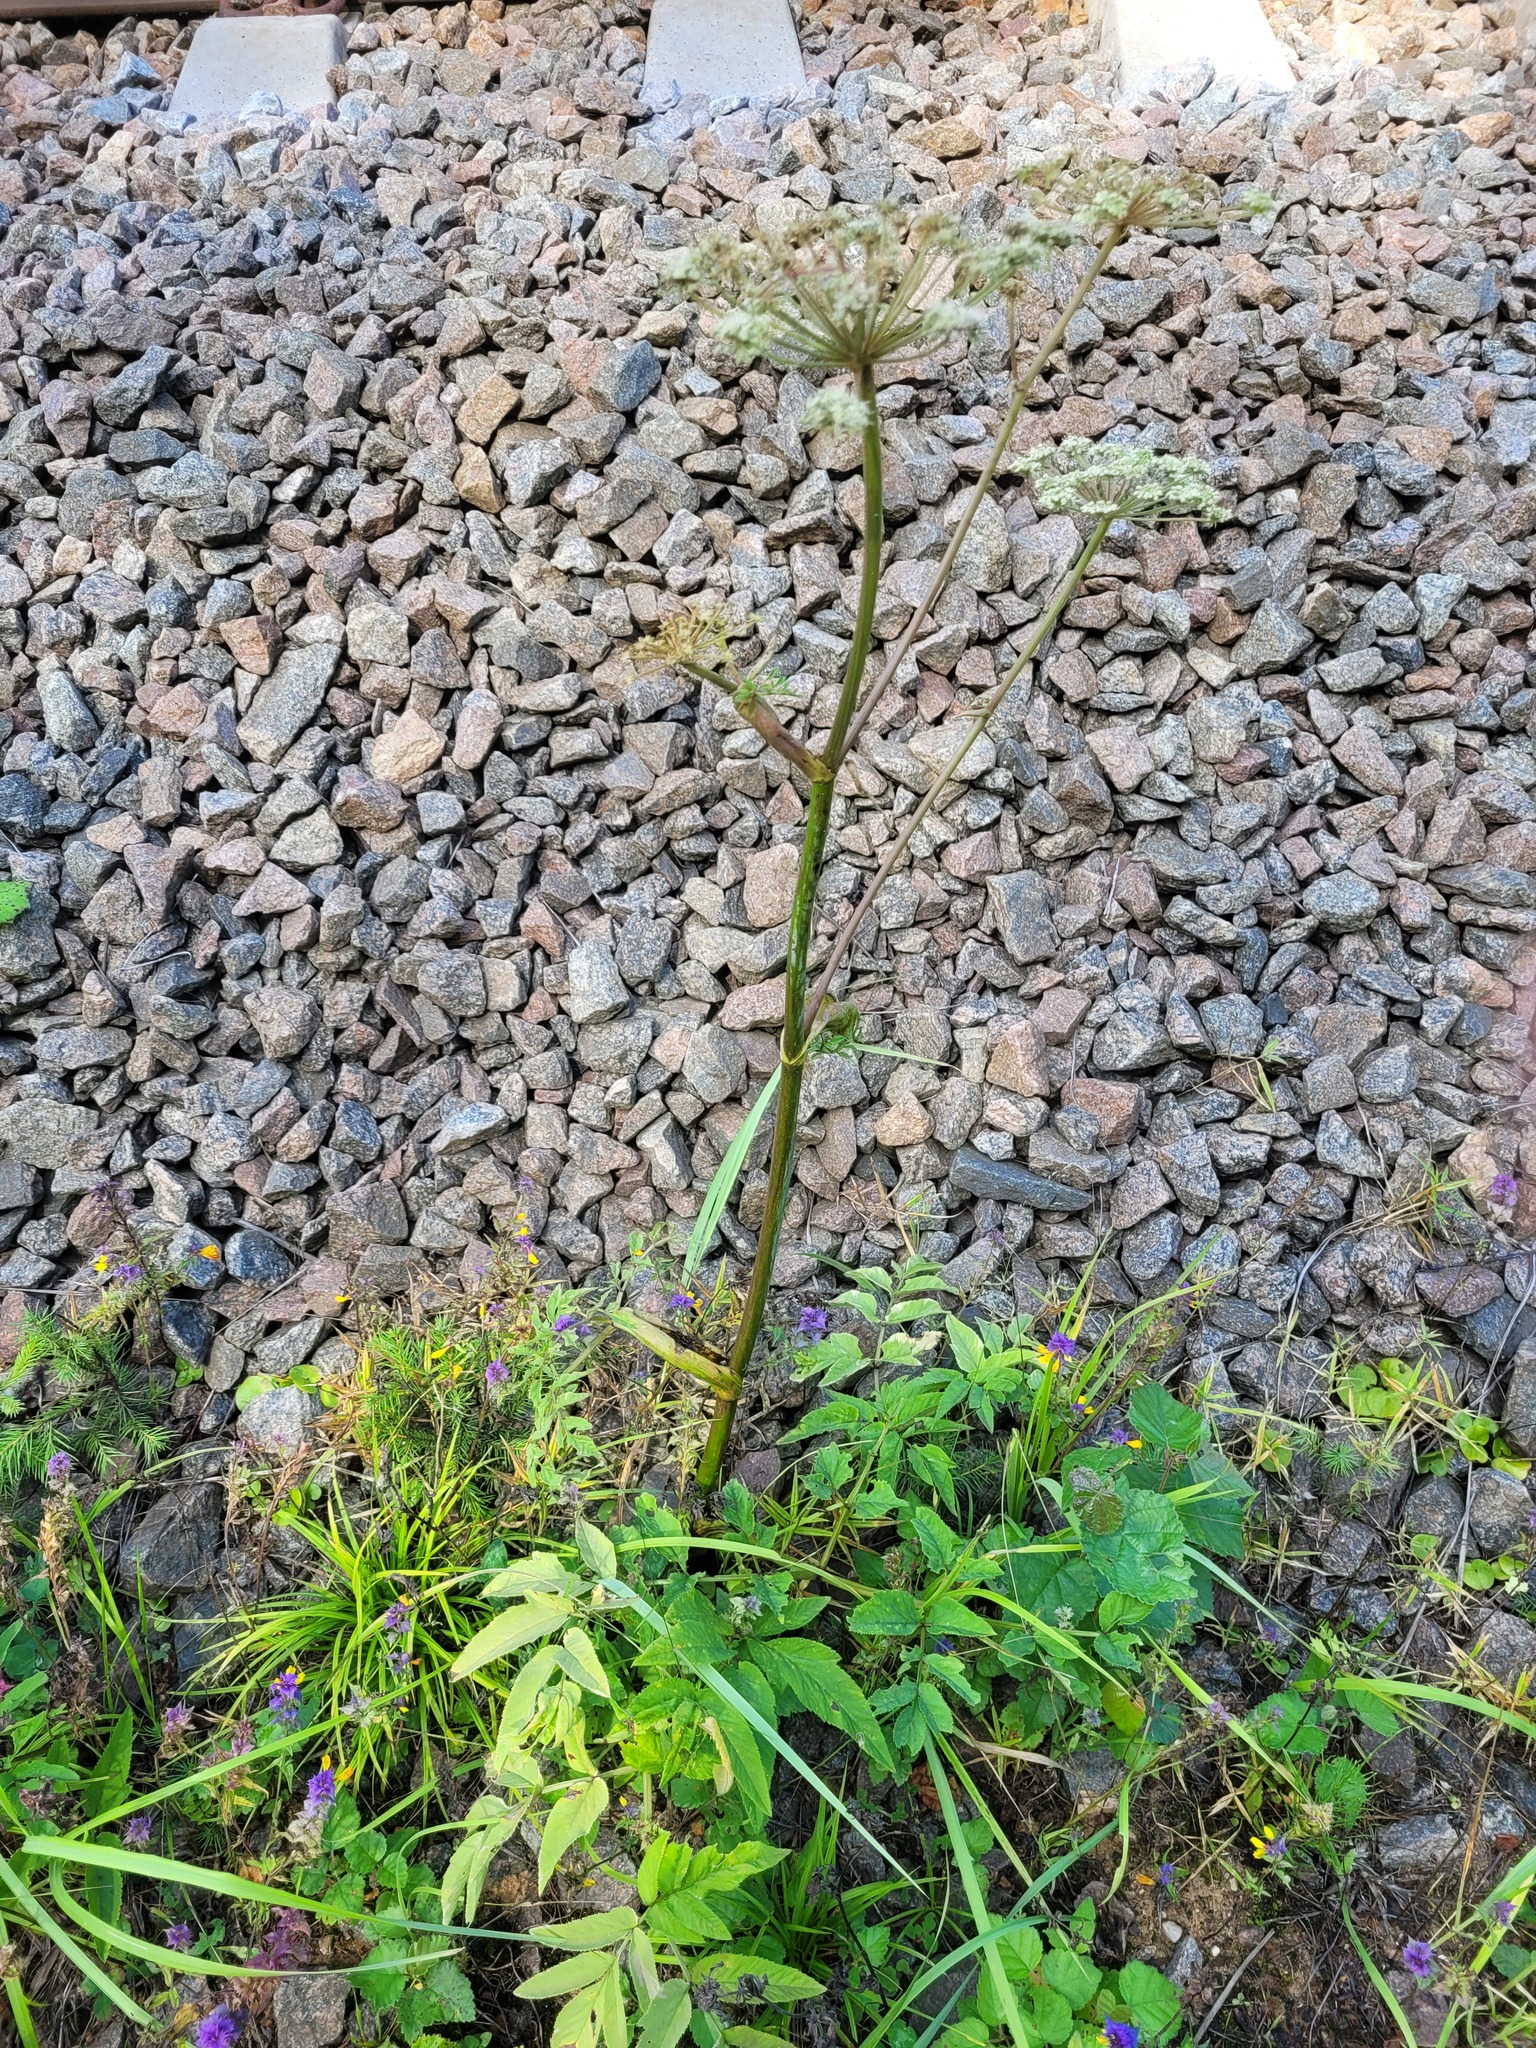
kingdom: Plantae
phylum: Tracheophyta
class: Magnoliopsida
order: Apiales
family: Apiaceae
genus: Angelica
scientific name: Angelica sylvestris
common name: Wild angelica
